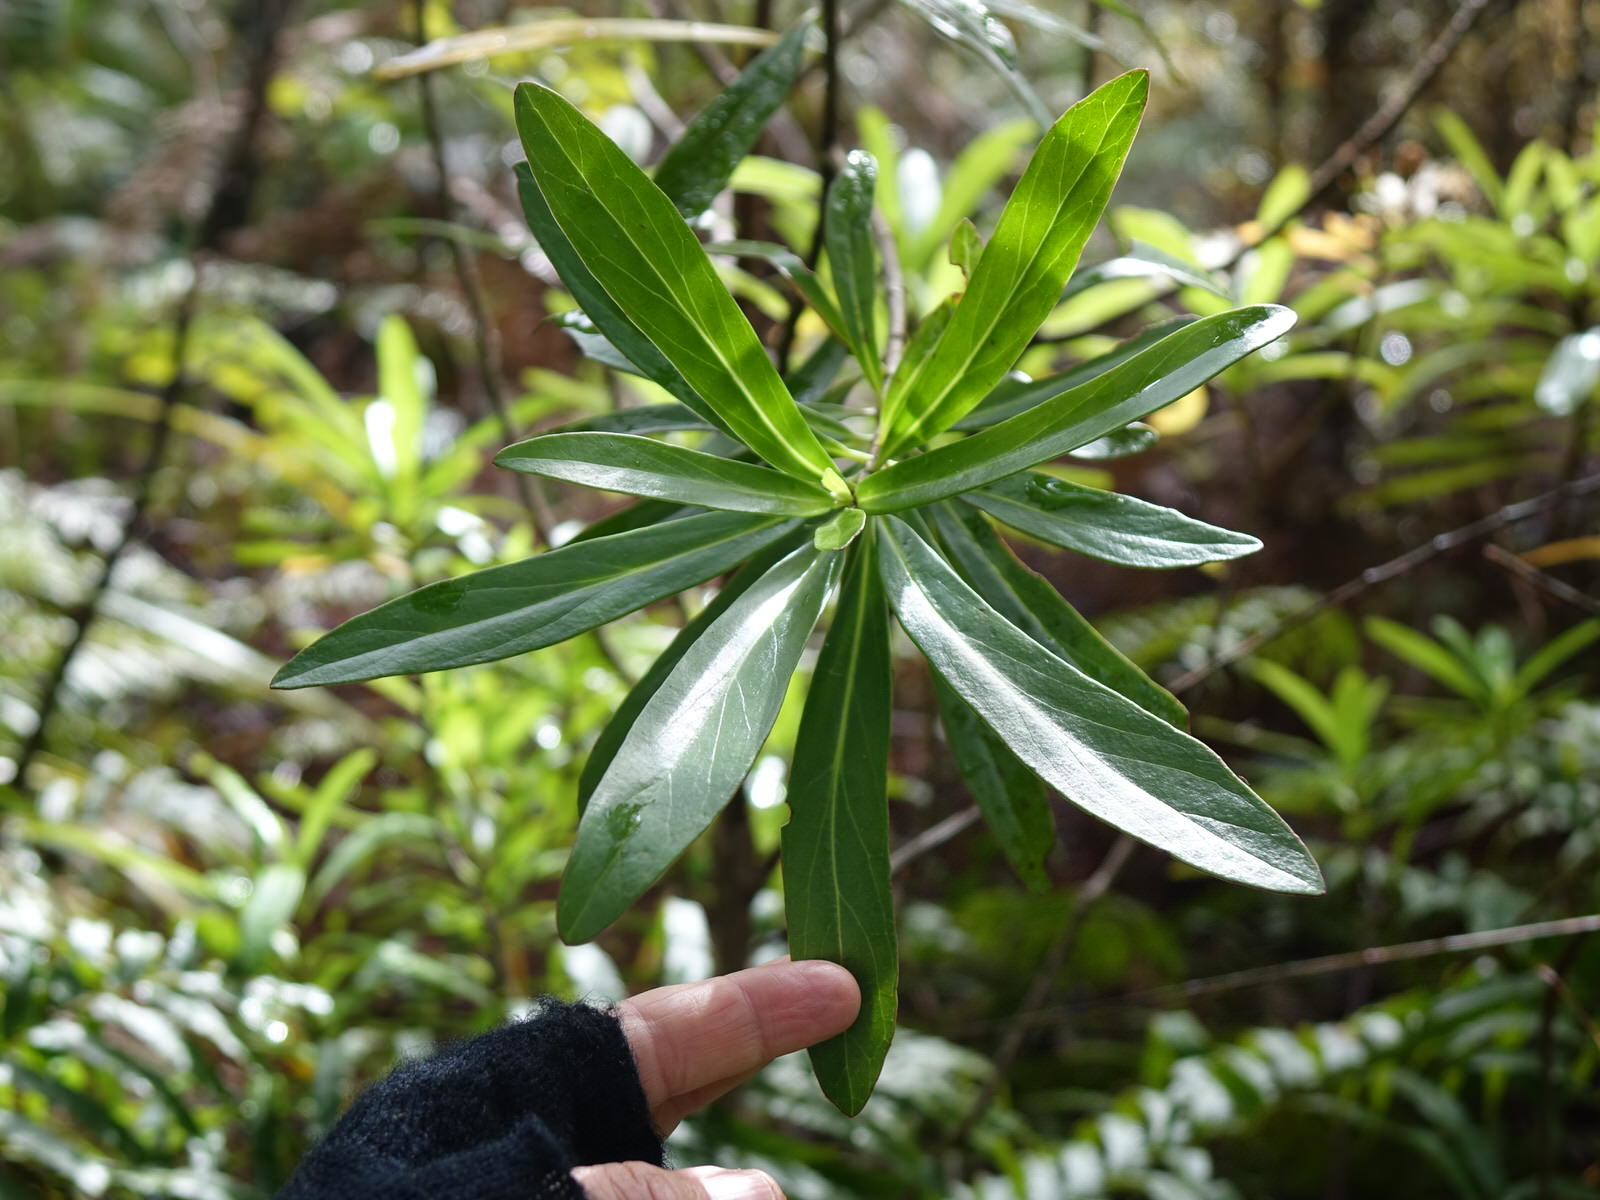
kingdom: Plantae
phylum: Tracheophyta
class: Magnoliopsida
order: Asterales
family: Asteraceae
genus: Brachyglottis
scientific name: Brachyglottis kirkii
